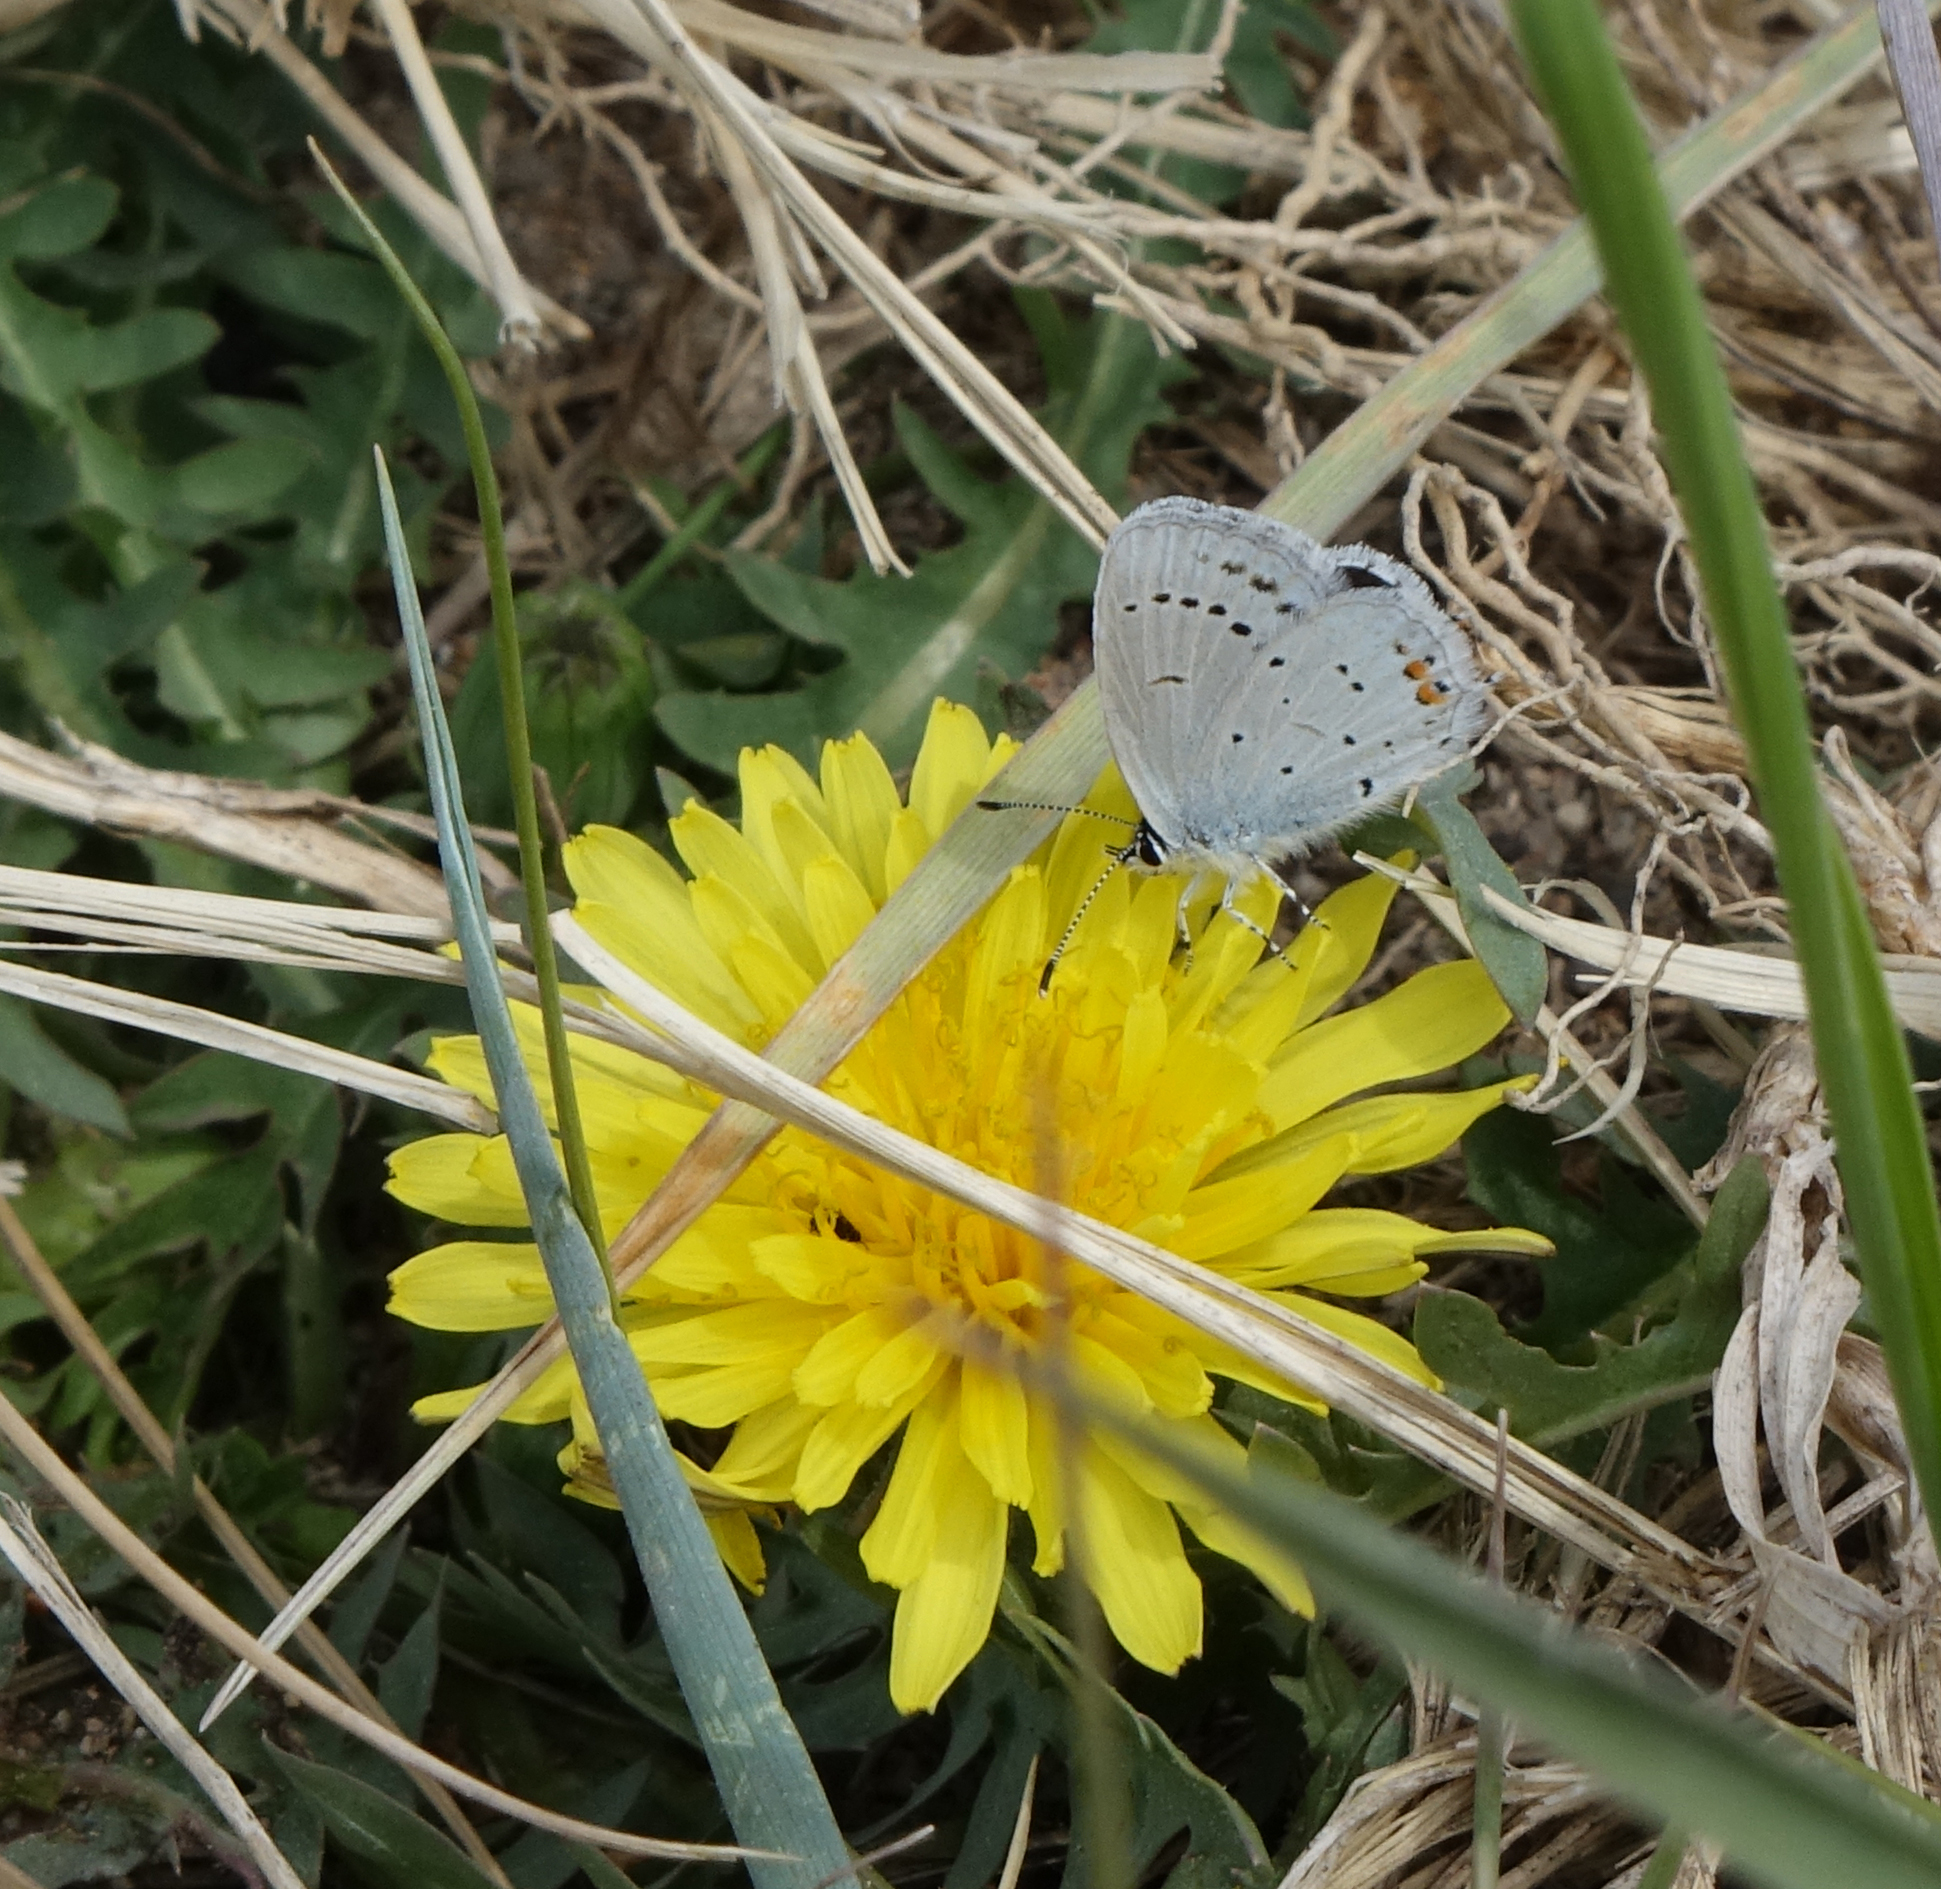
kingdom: Animalia
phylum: Arthropoda
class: Insecta
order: Lepidoptera
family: Lycaenidae
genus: Elkalyce
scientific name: Elkalyce argiades
